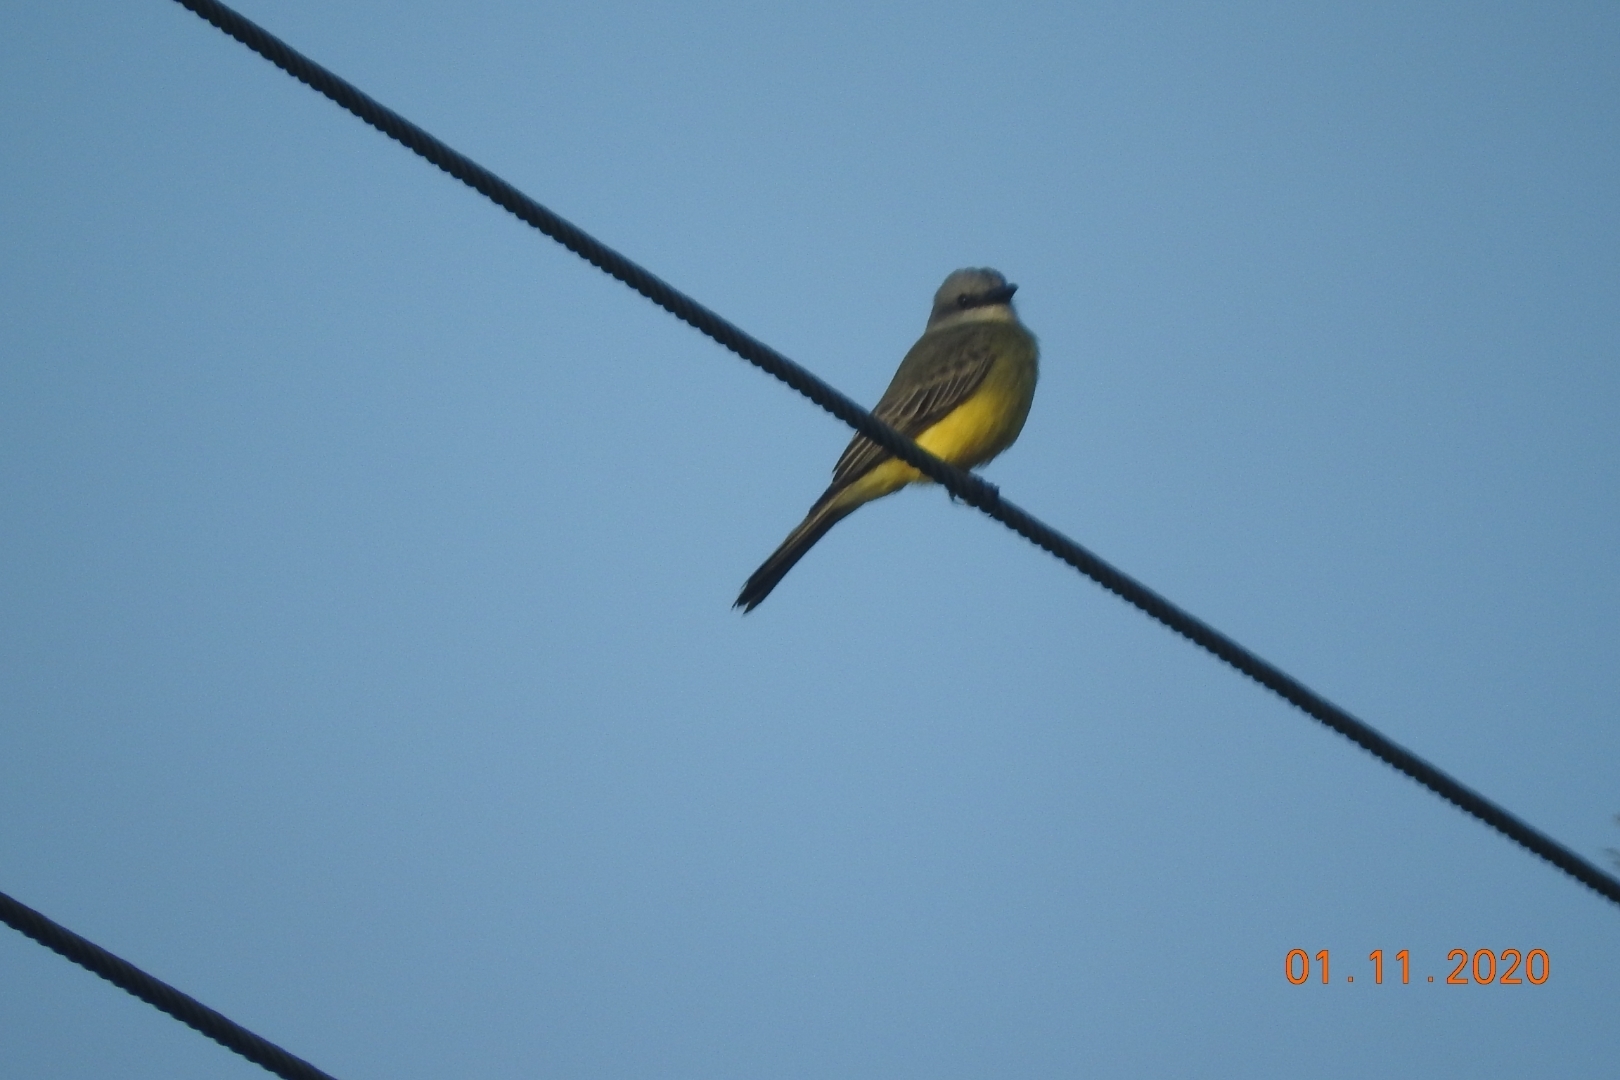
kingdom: Animalia
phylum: Chordata
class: Aves
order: Passeriformes
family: Tyrannidae
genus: Tyrannus
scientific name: Tyrannus melancholicus
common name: Tropical kingbird
